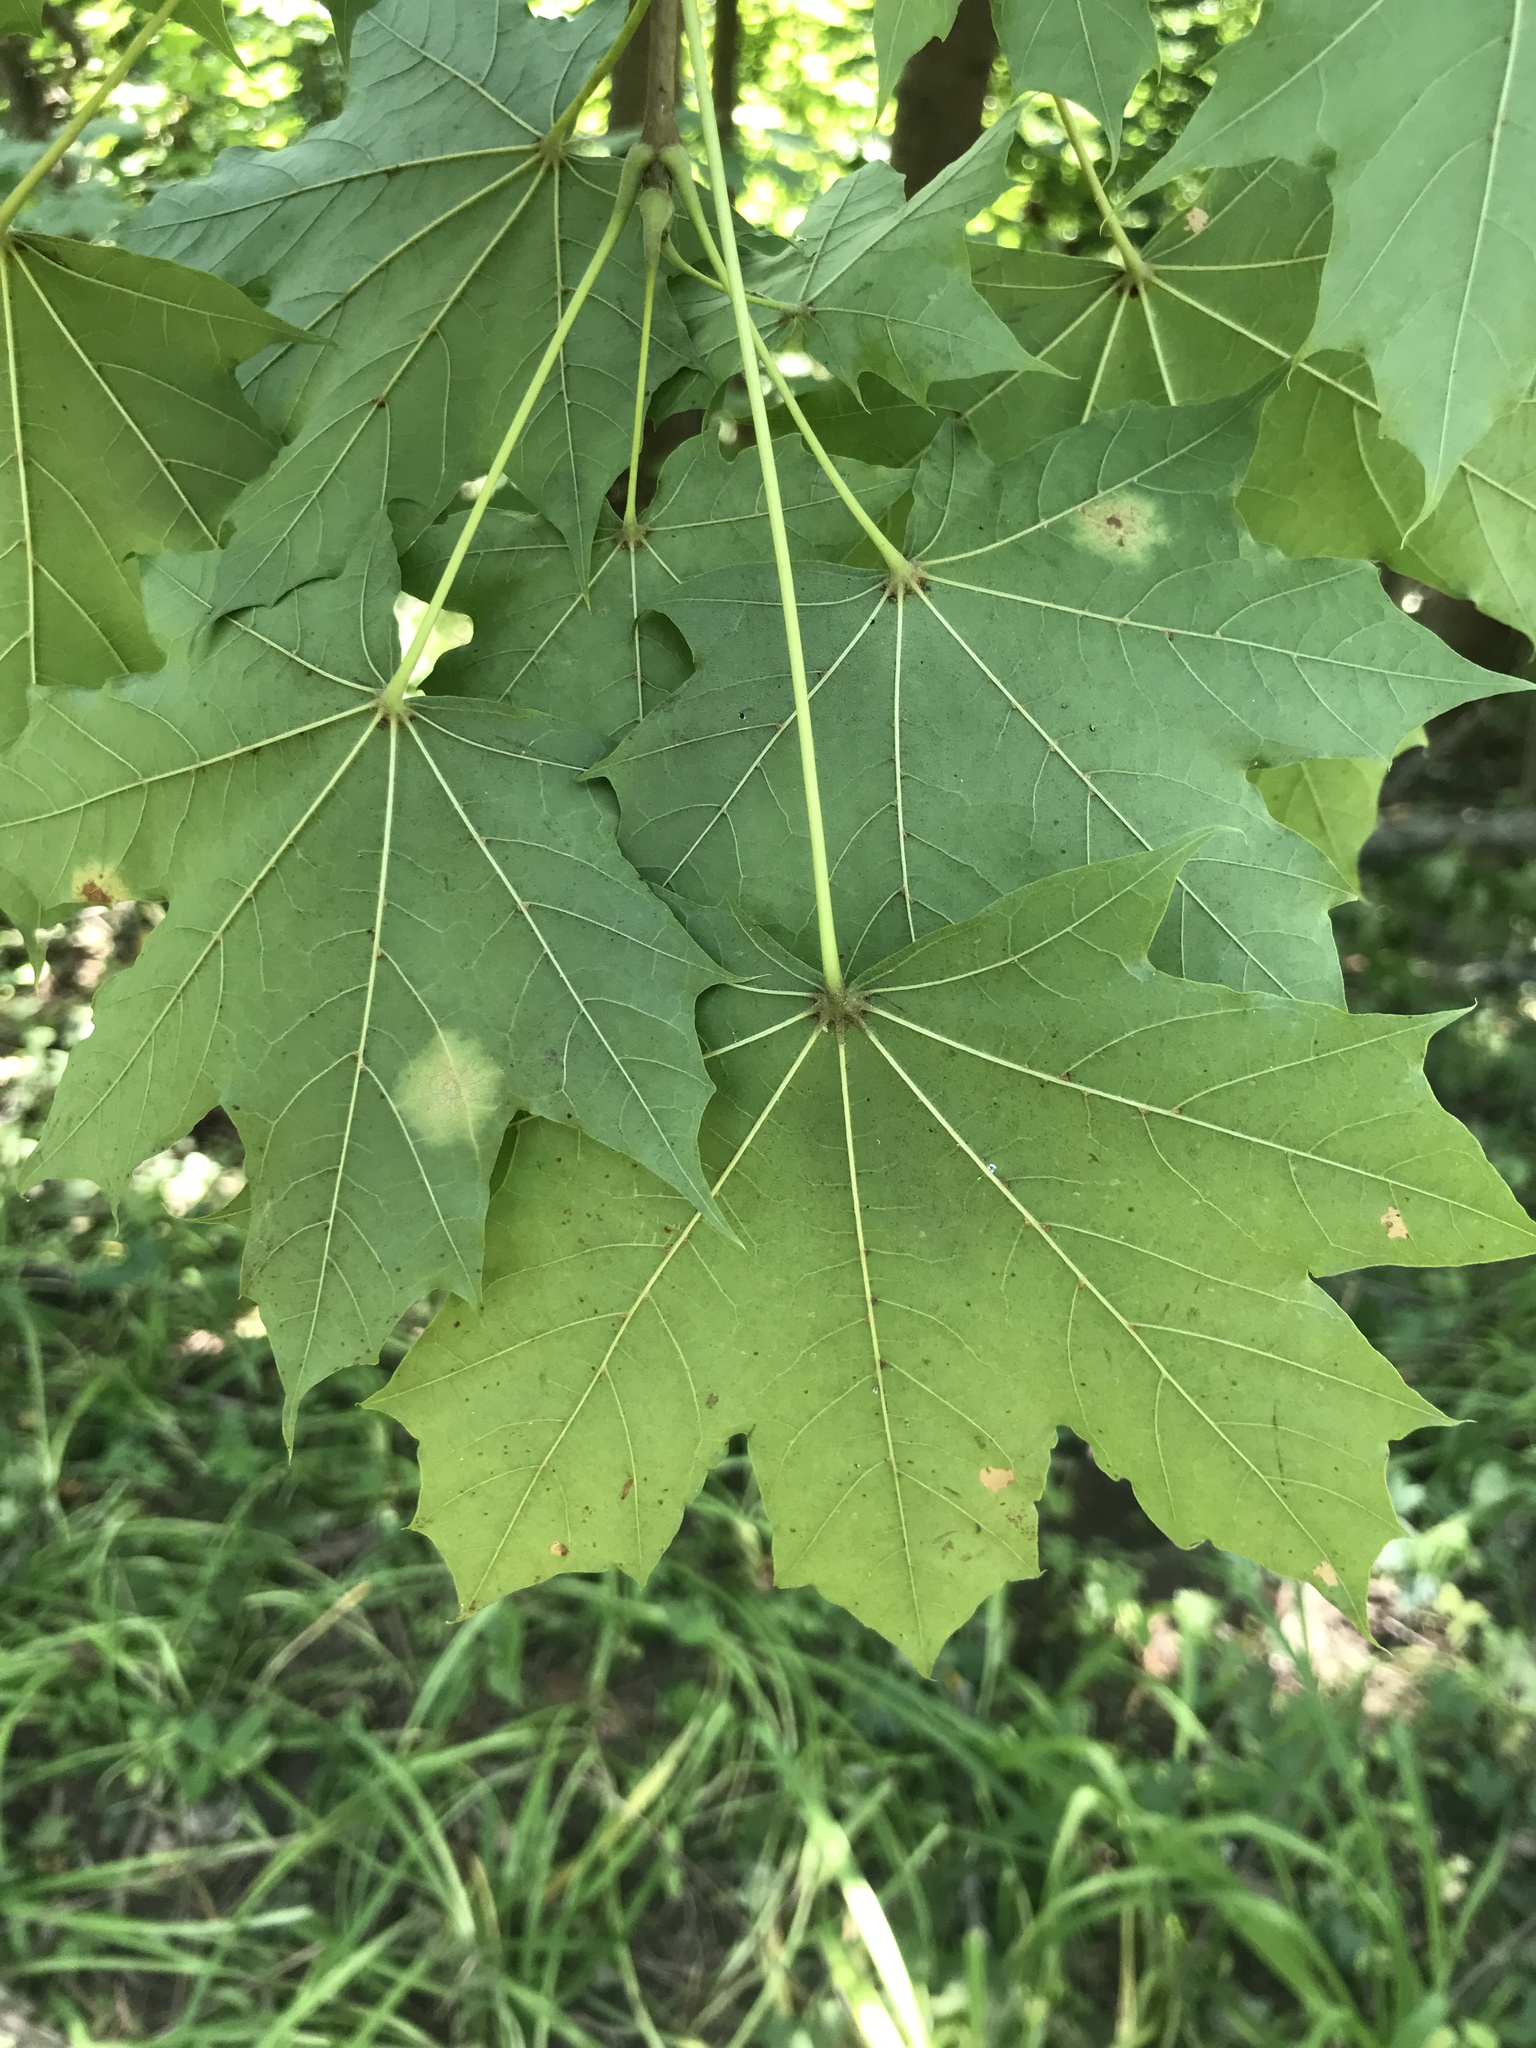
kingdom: Fungi
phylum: Ascomycota
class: Leotiomycetes
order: Rhytismatales
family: Rhytismataceae
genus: Rhytisma
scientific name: Rhytisma acerinum
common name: European tar spot
